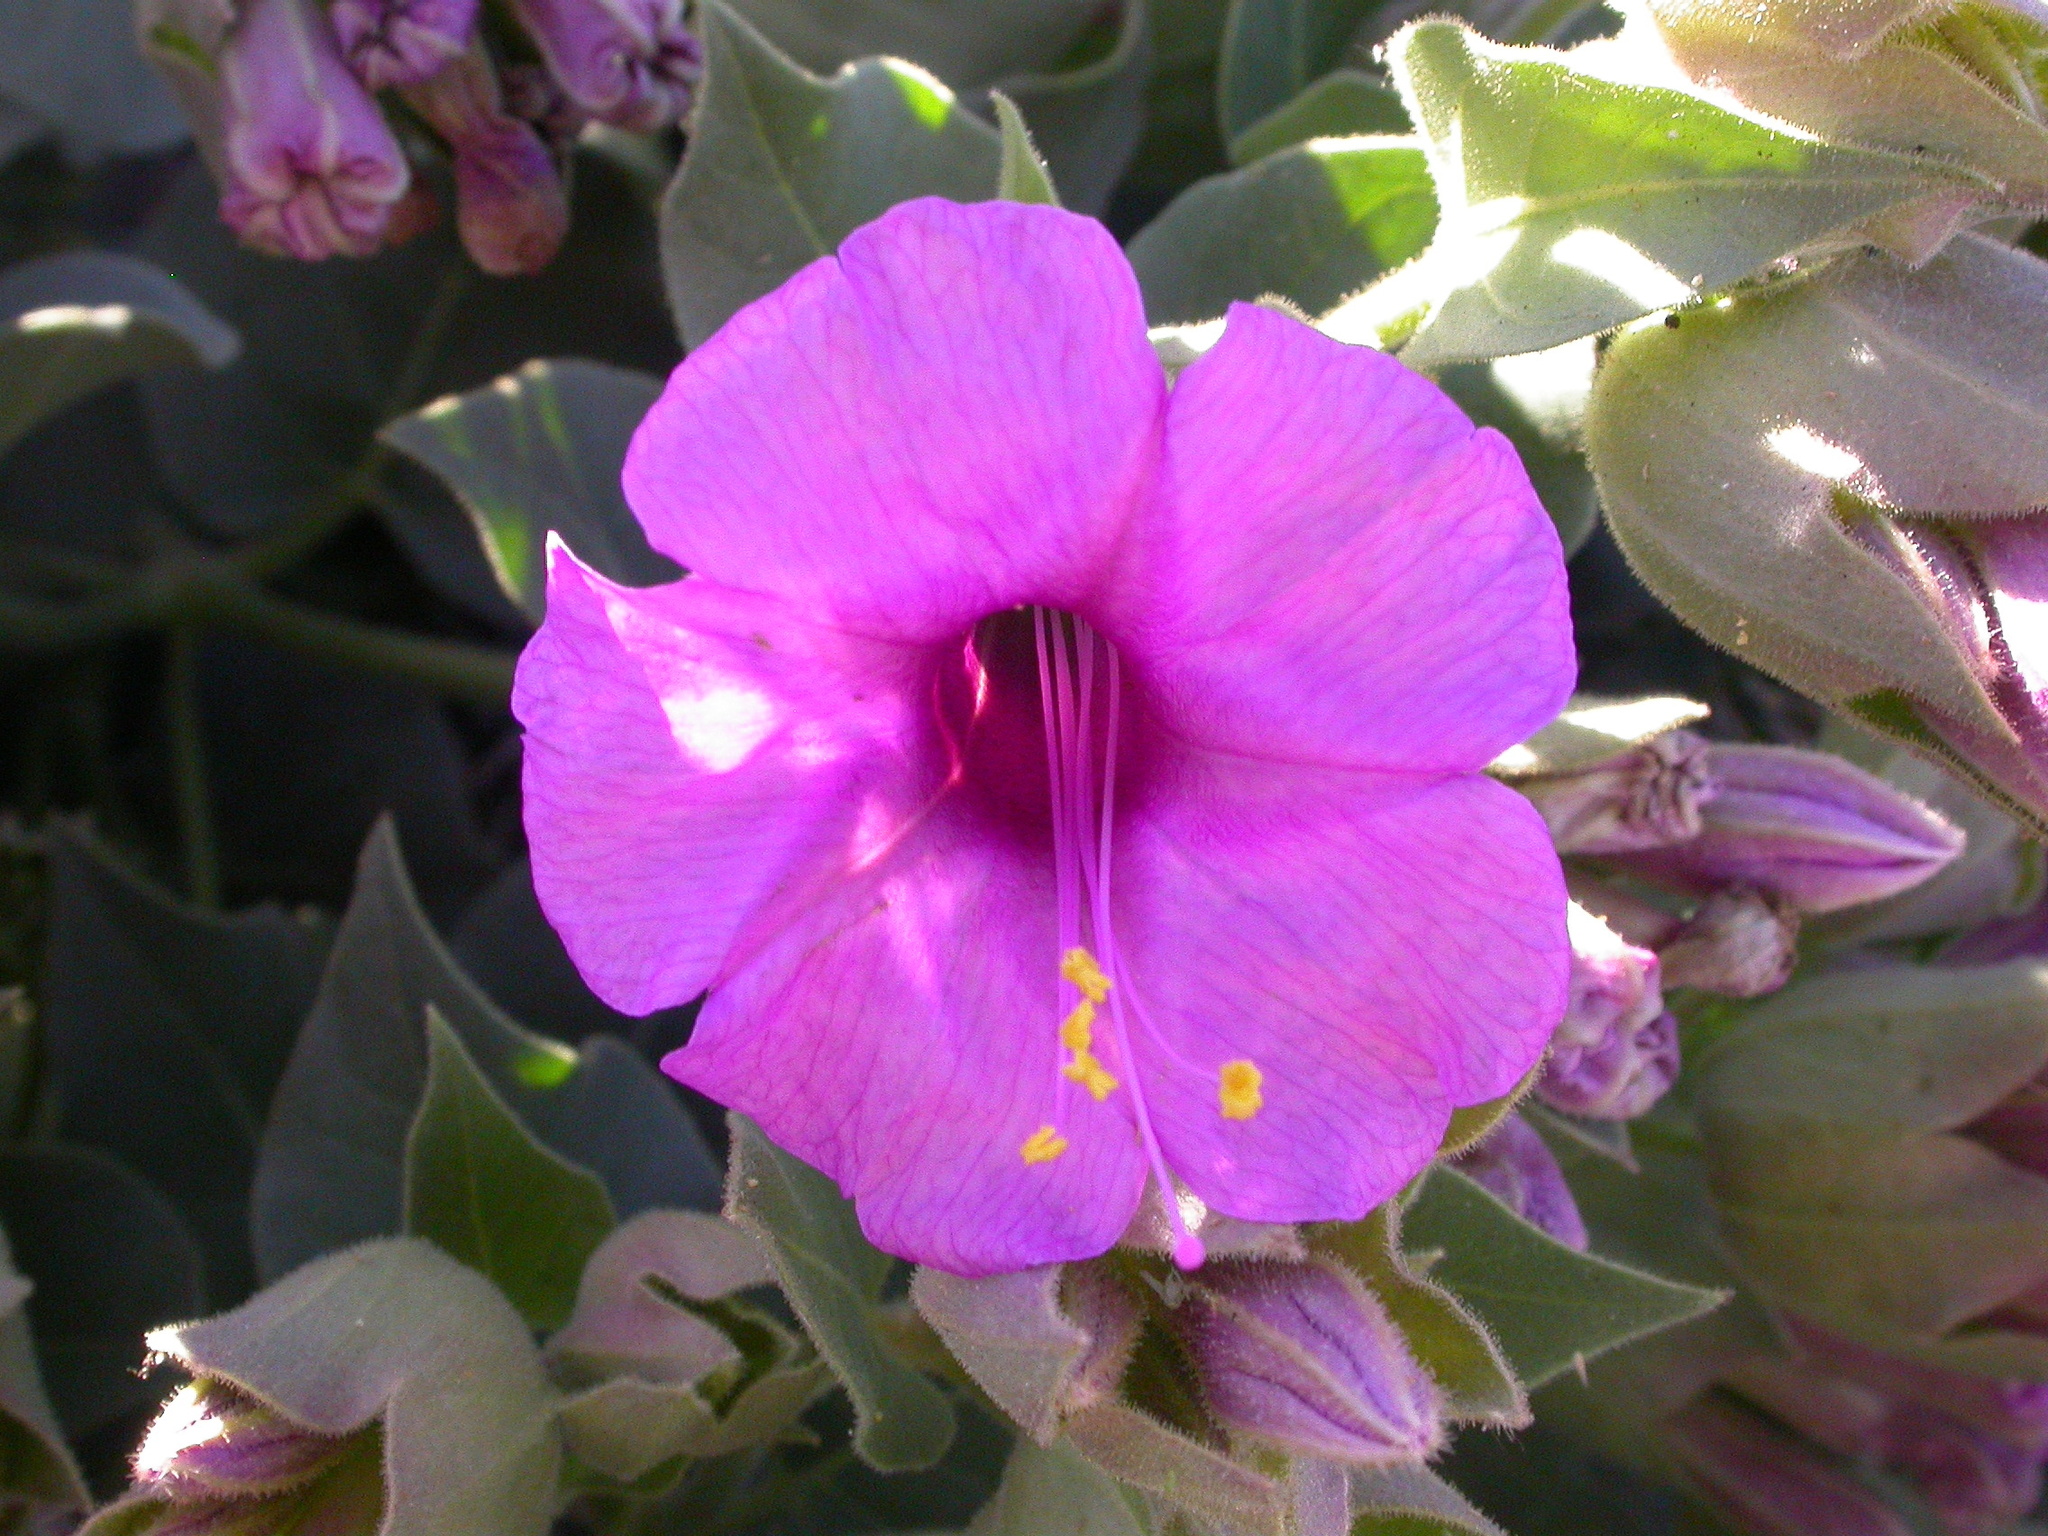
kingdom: Plantae
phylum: Tracheophyta
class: Magnoliopsida
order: Caryophyllales
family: Nyctaginaceae
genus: Mirabilis
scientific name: Mirabilis multiflora
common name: Froebel's four-o'clock
